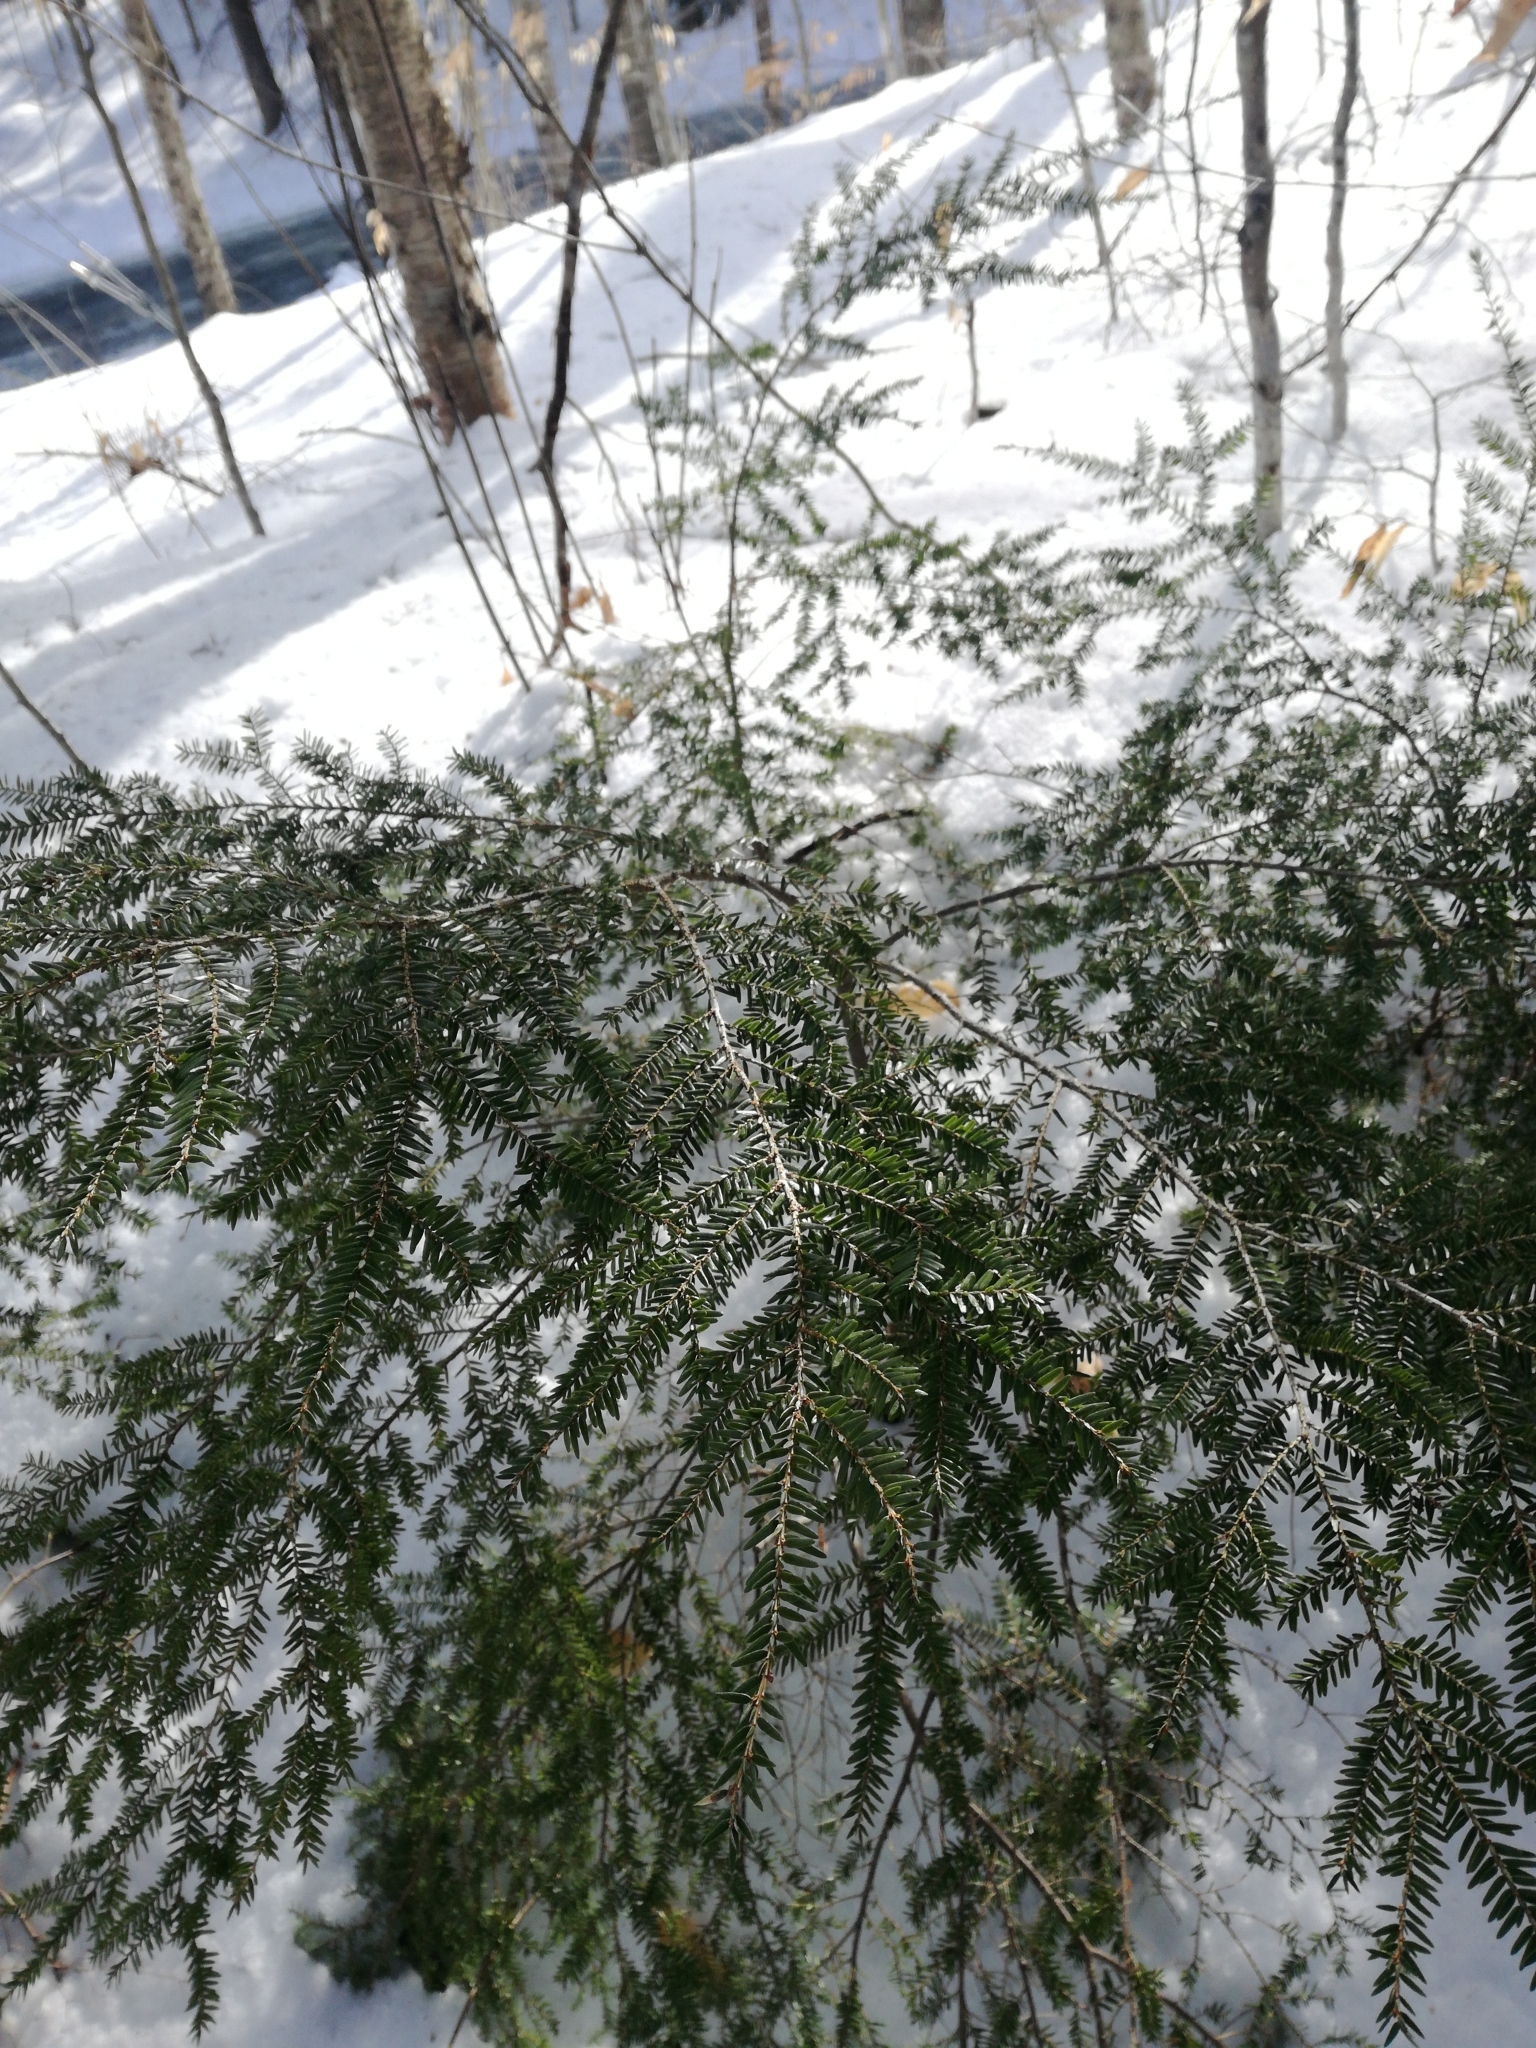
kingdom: Plantae
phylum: Tracheophyta
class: Pinopsida
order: Pinales
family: Pinaceae
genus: Tsuga
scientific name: Tsuga canadensis
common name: Eastern hemlock
